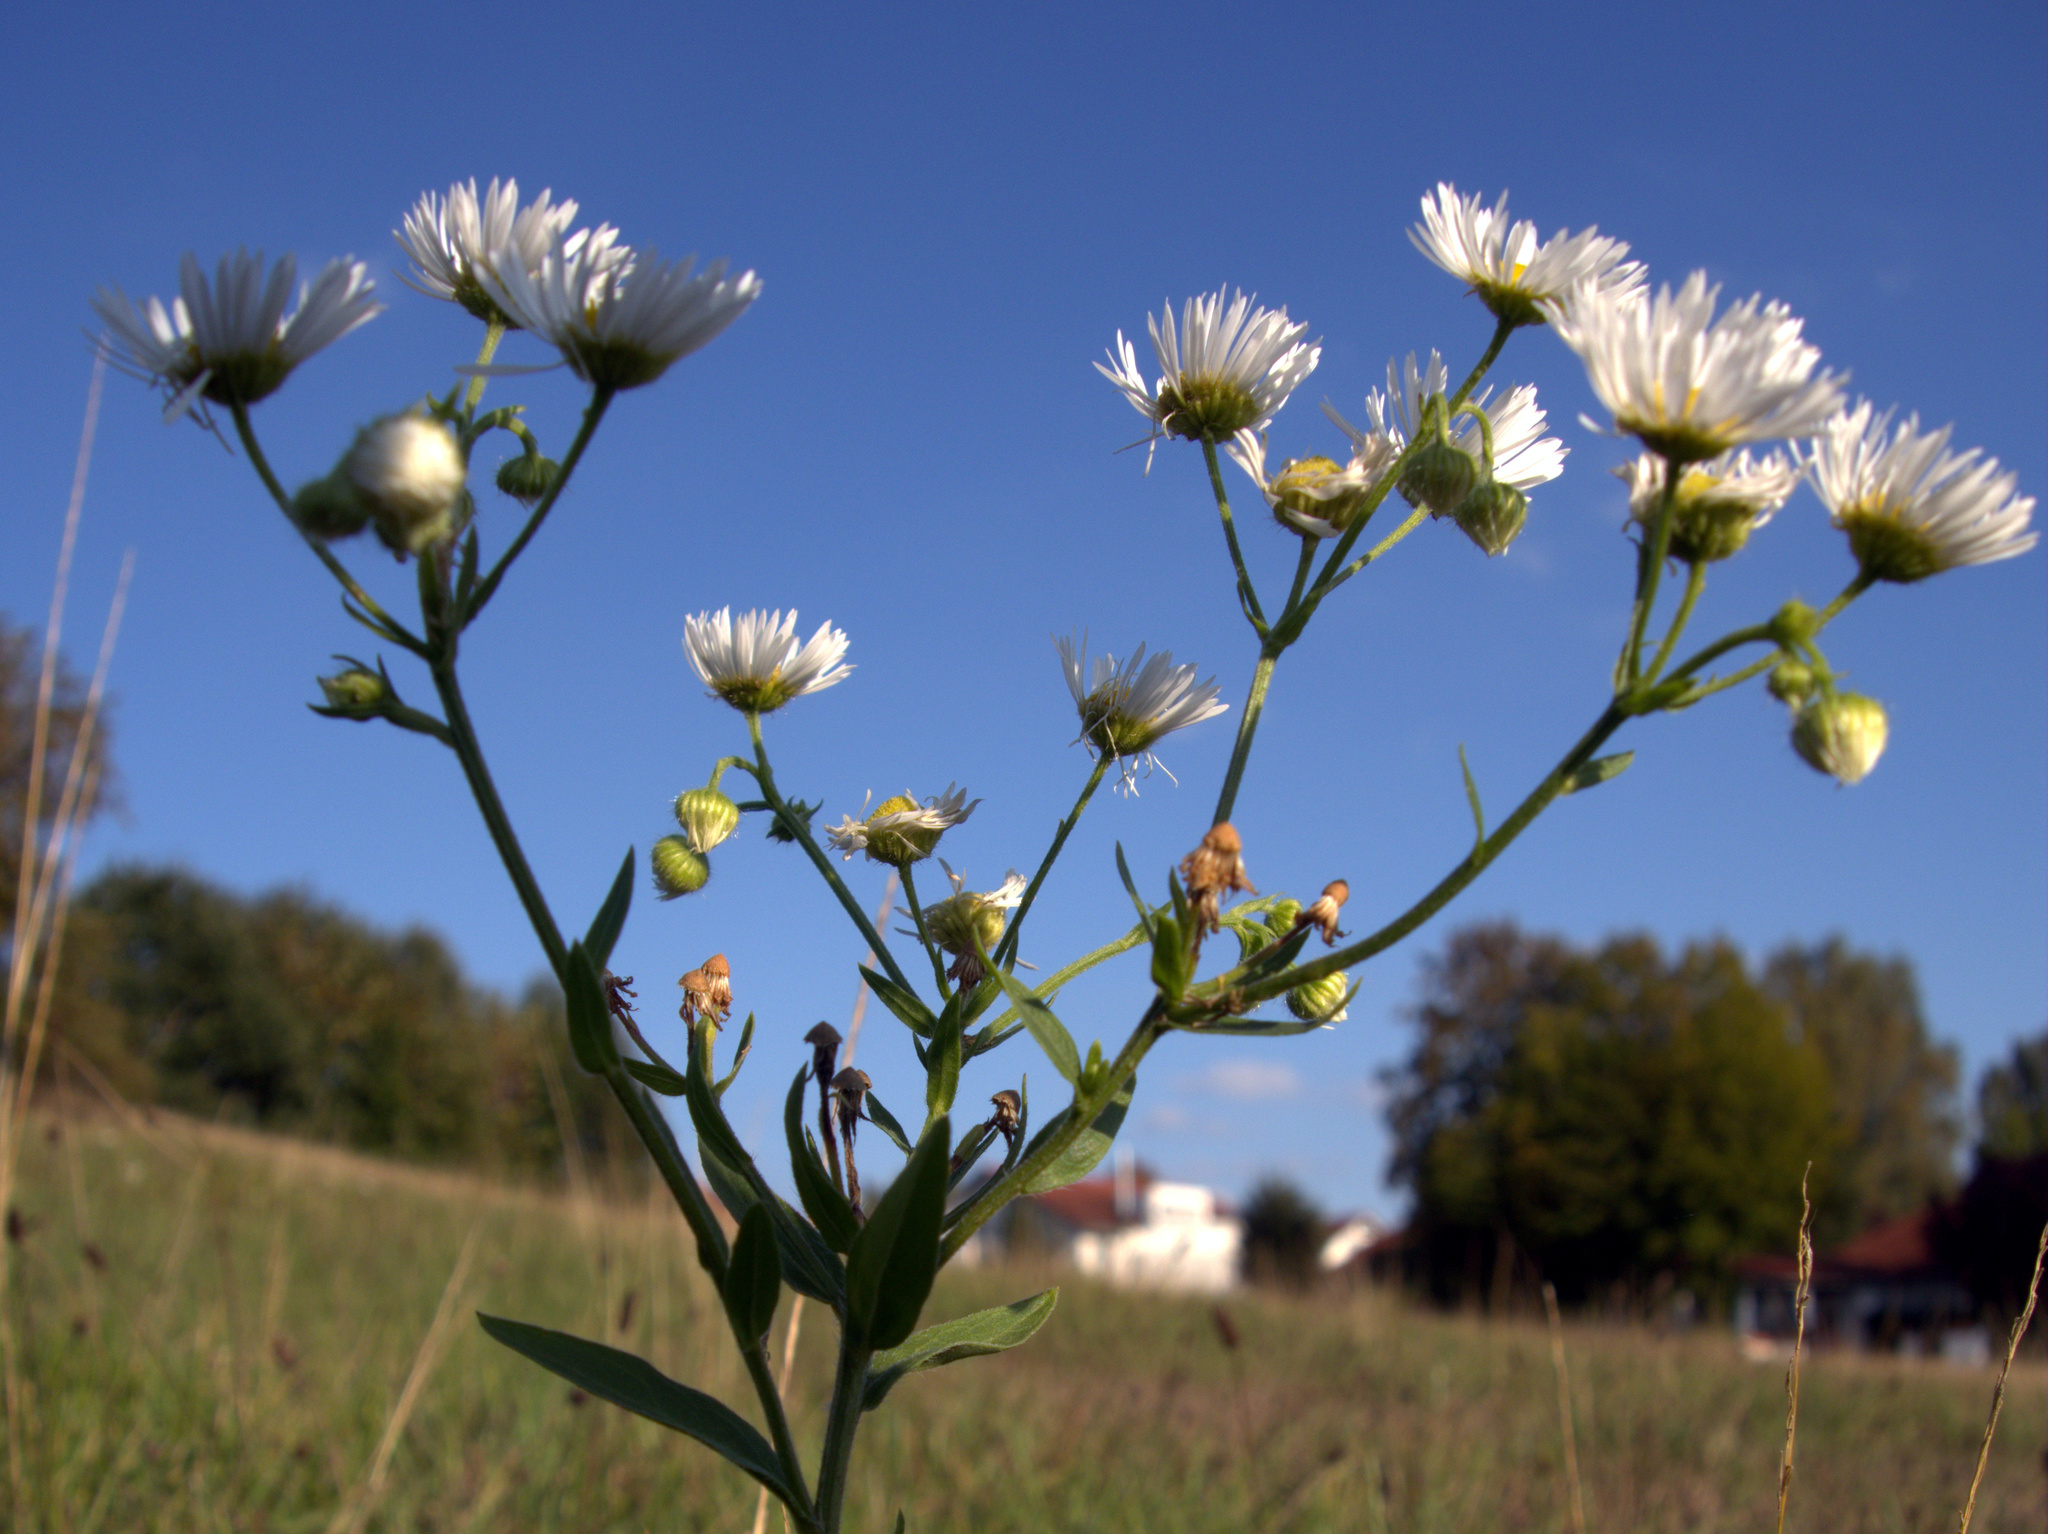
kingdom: Plantae
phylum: Tracheophyta
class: Magnoliopsida
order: Asterales
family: Asteraceae
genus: Erigeron
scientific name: Erigeron annuus
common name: Tall fleabane
